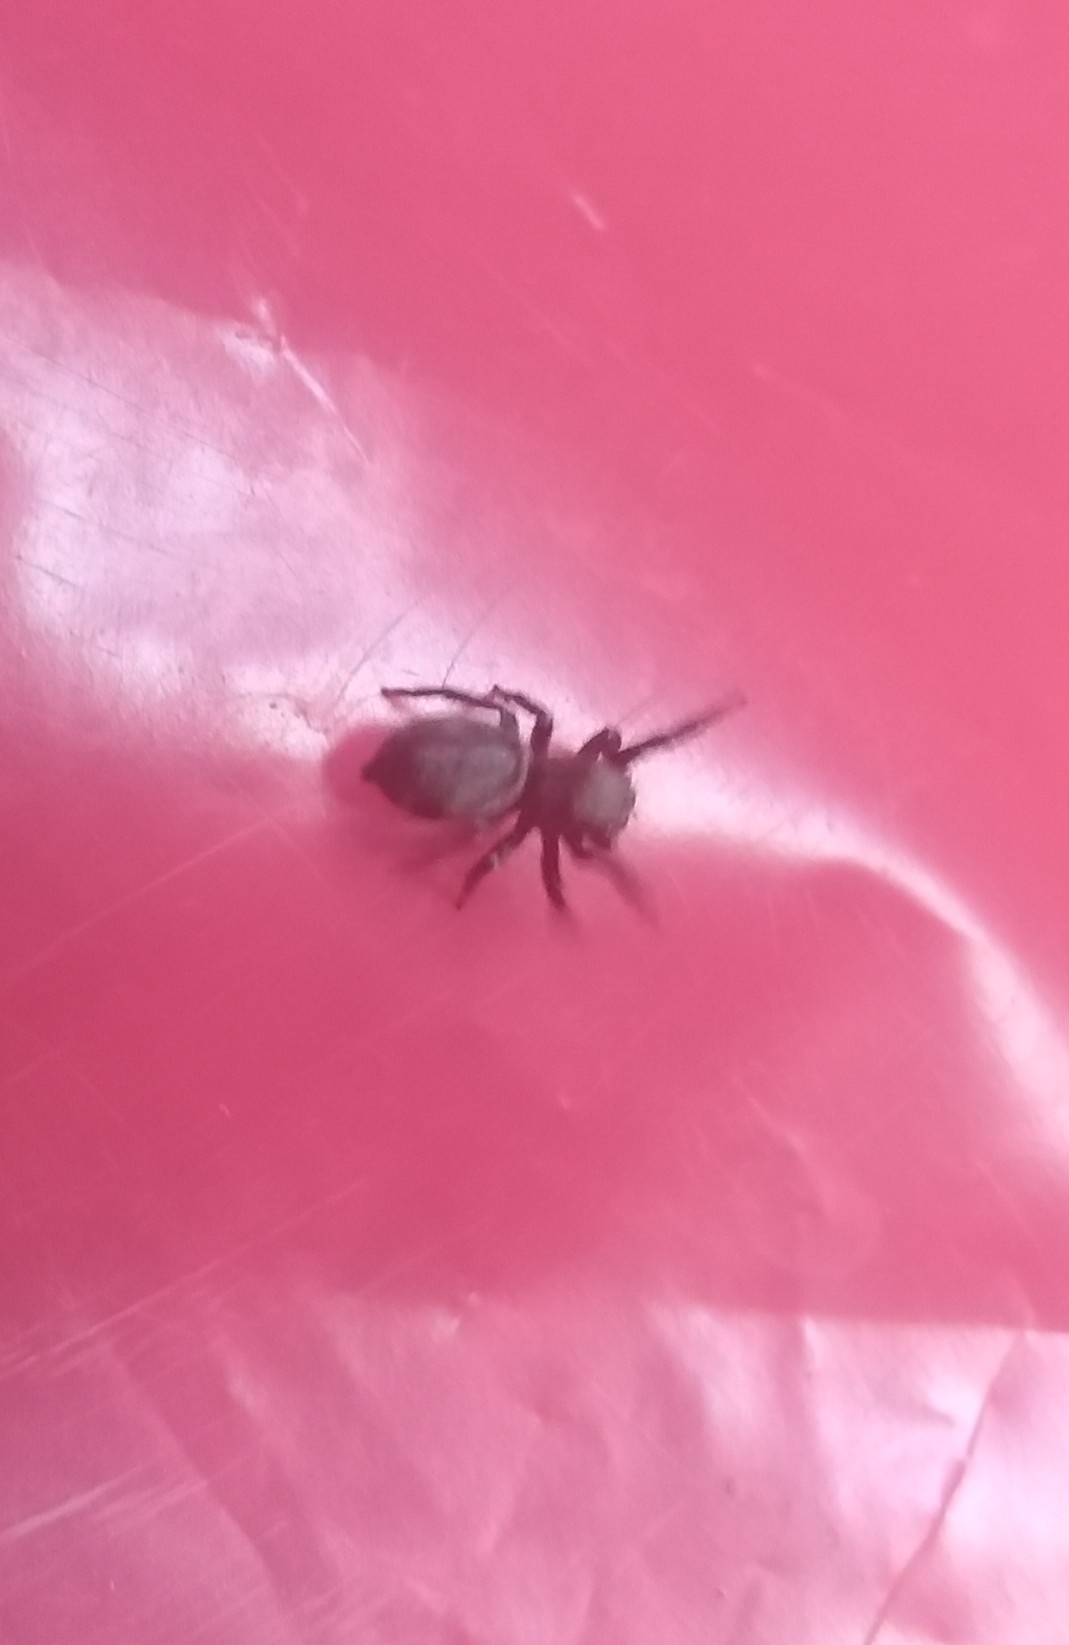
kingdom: Animalia
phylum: Arthropoda
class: Arachnida
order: Araneae
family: Salticidae
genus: Phiale
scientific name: Phiale roburifoliata
